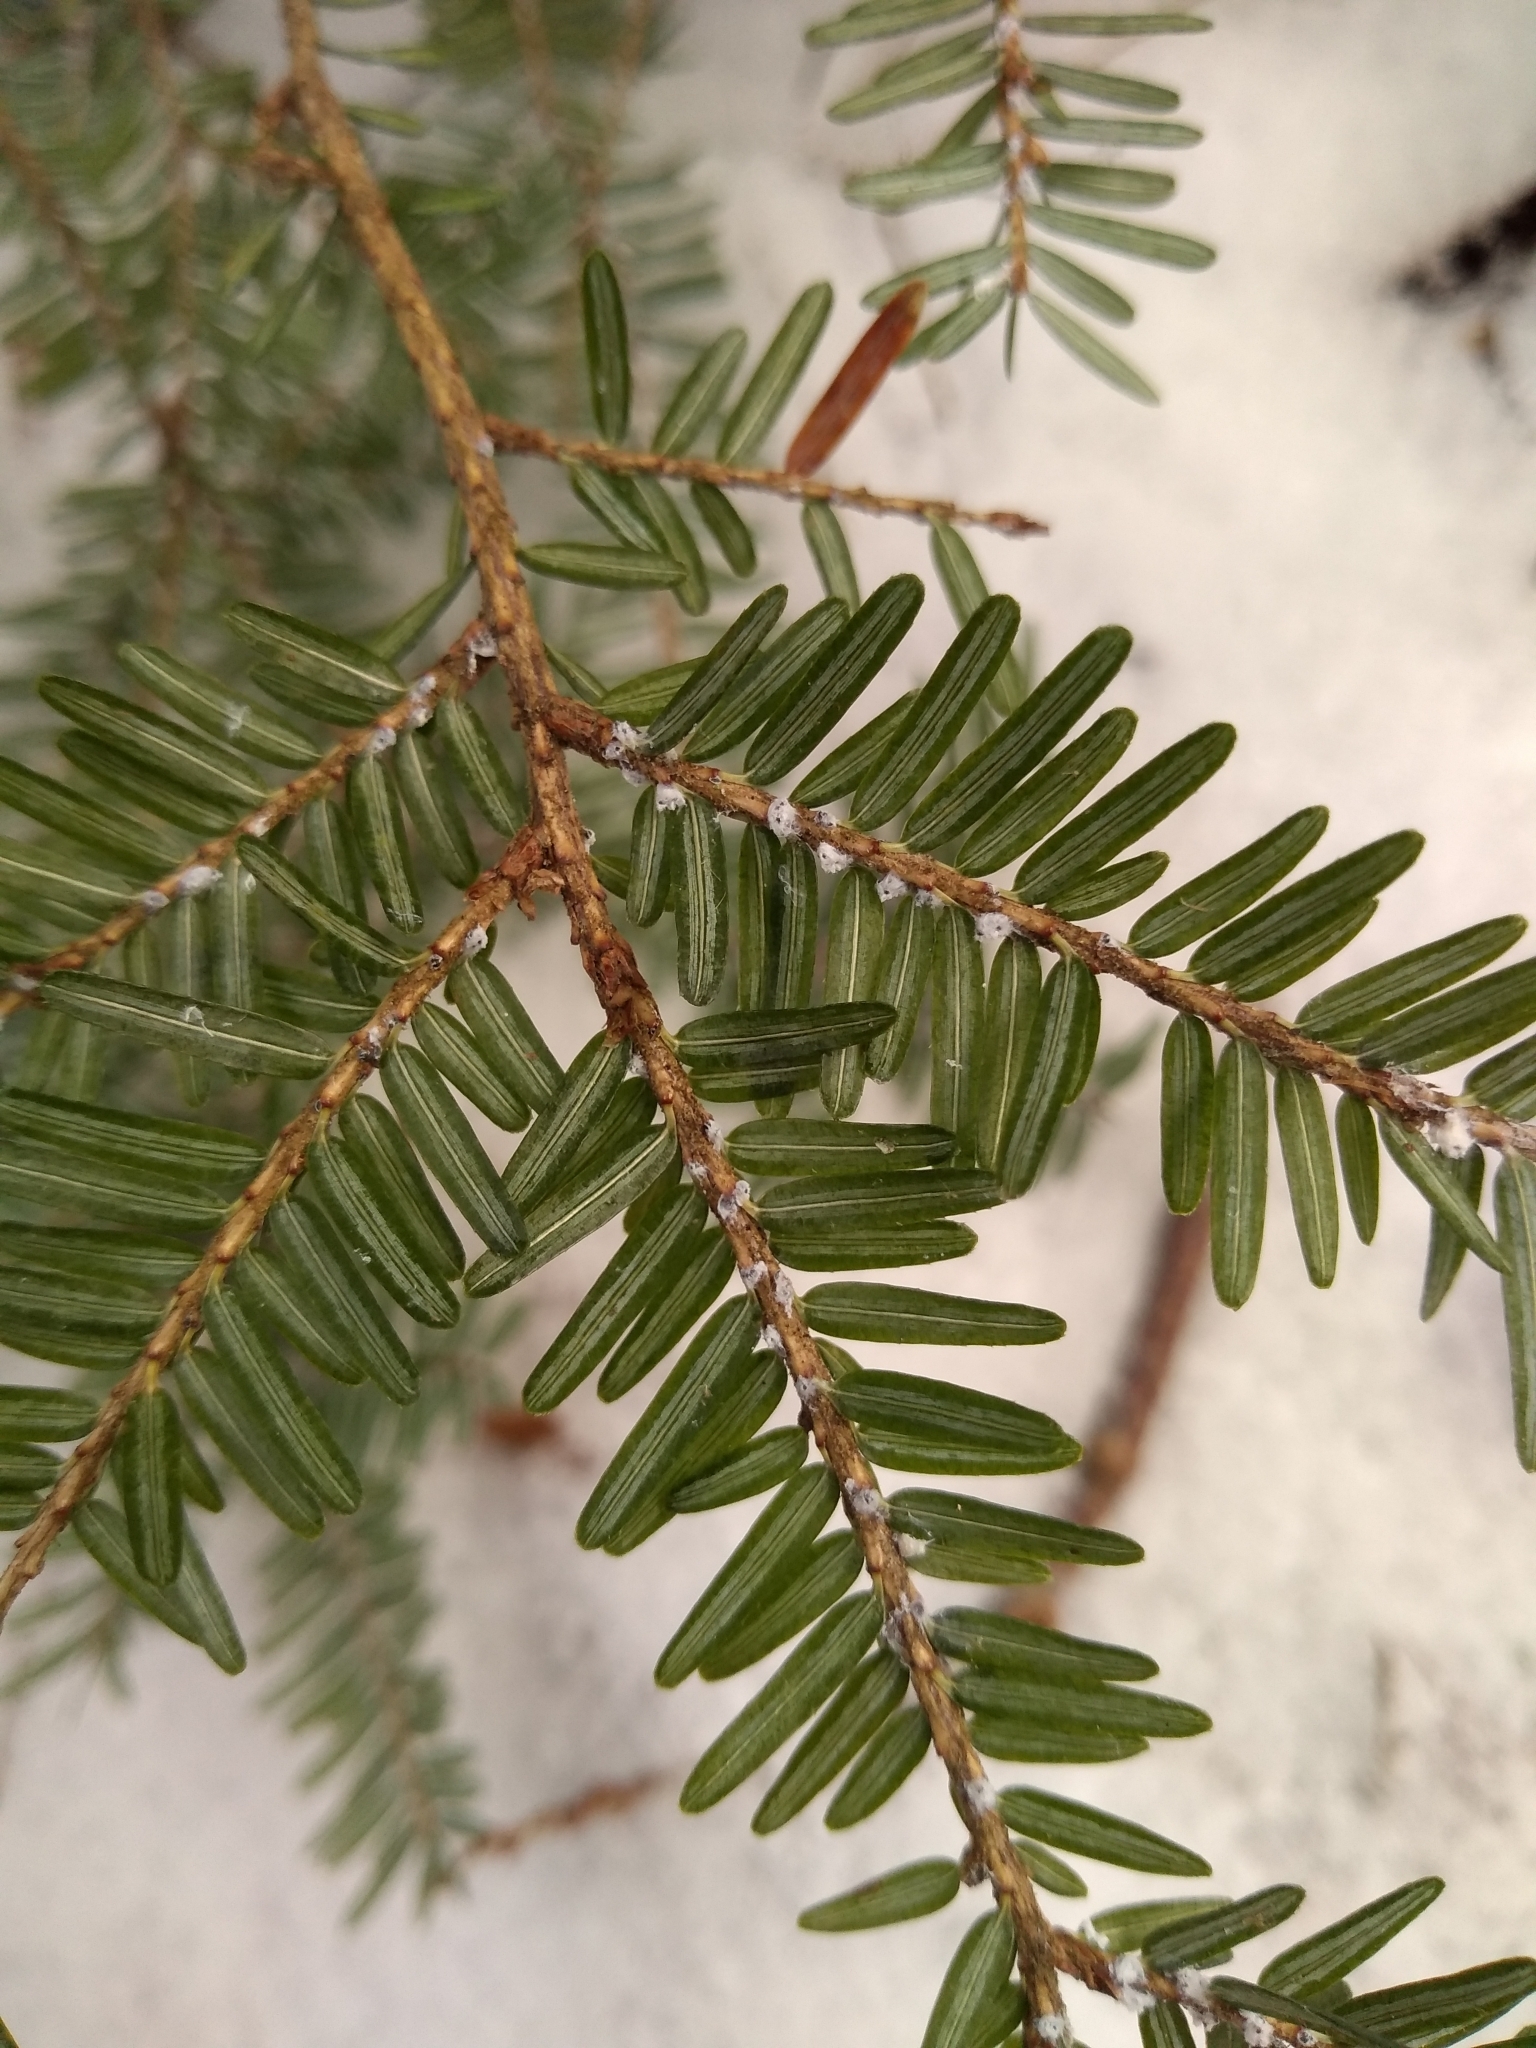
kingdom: Animalia
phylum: Arthropoda
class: Insecta
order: Hemiptera
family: Adelgidae
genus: Adelges
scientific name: Adelges tsugae
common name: Hemlock woolly adelgid
